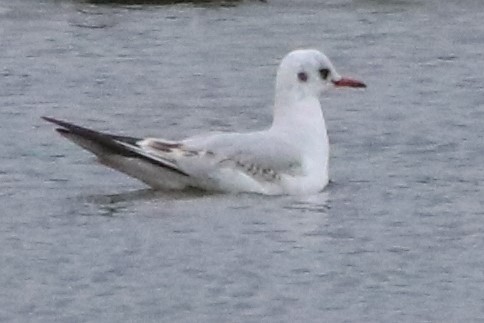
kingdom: Animalia
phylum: Chordata
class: Aves
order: Charadriiformes
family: Laridae
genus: Chroicocephalus
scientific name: Chroicocephalus ridibundus
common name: Black-headed gull
